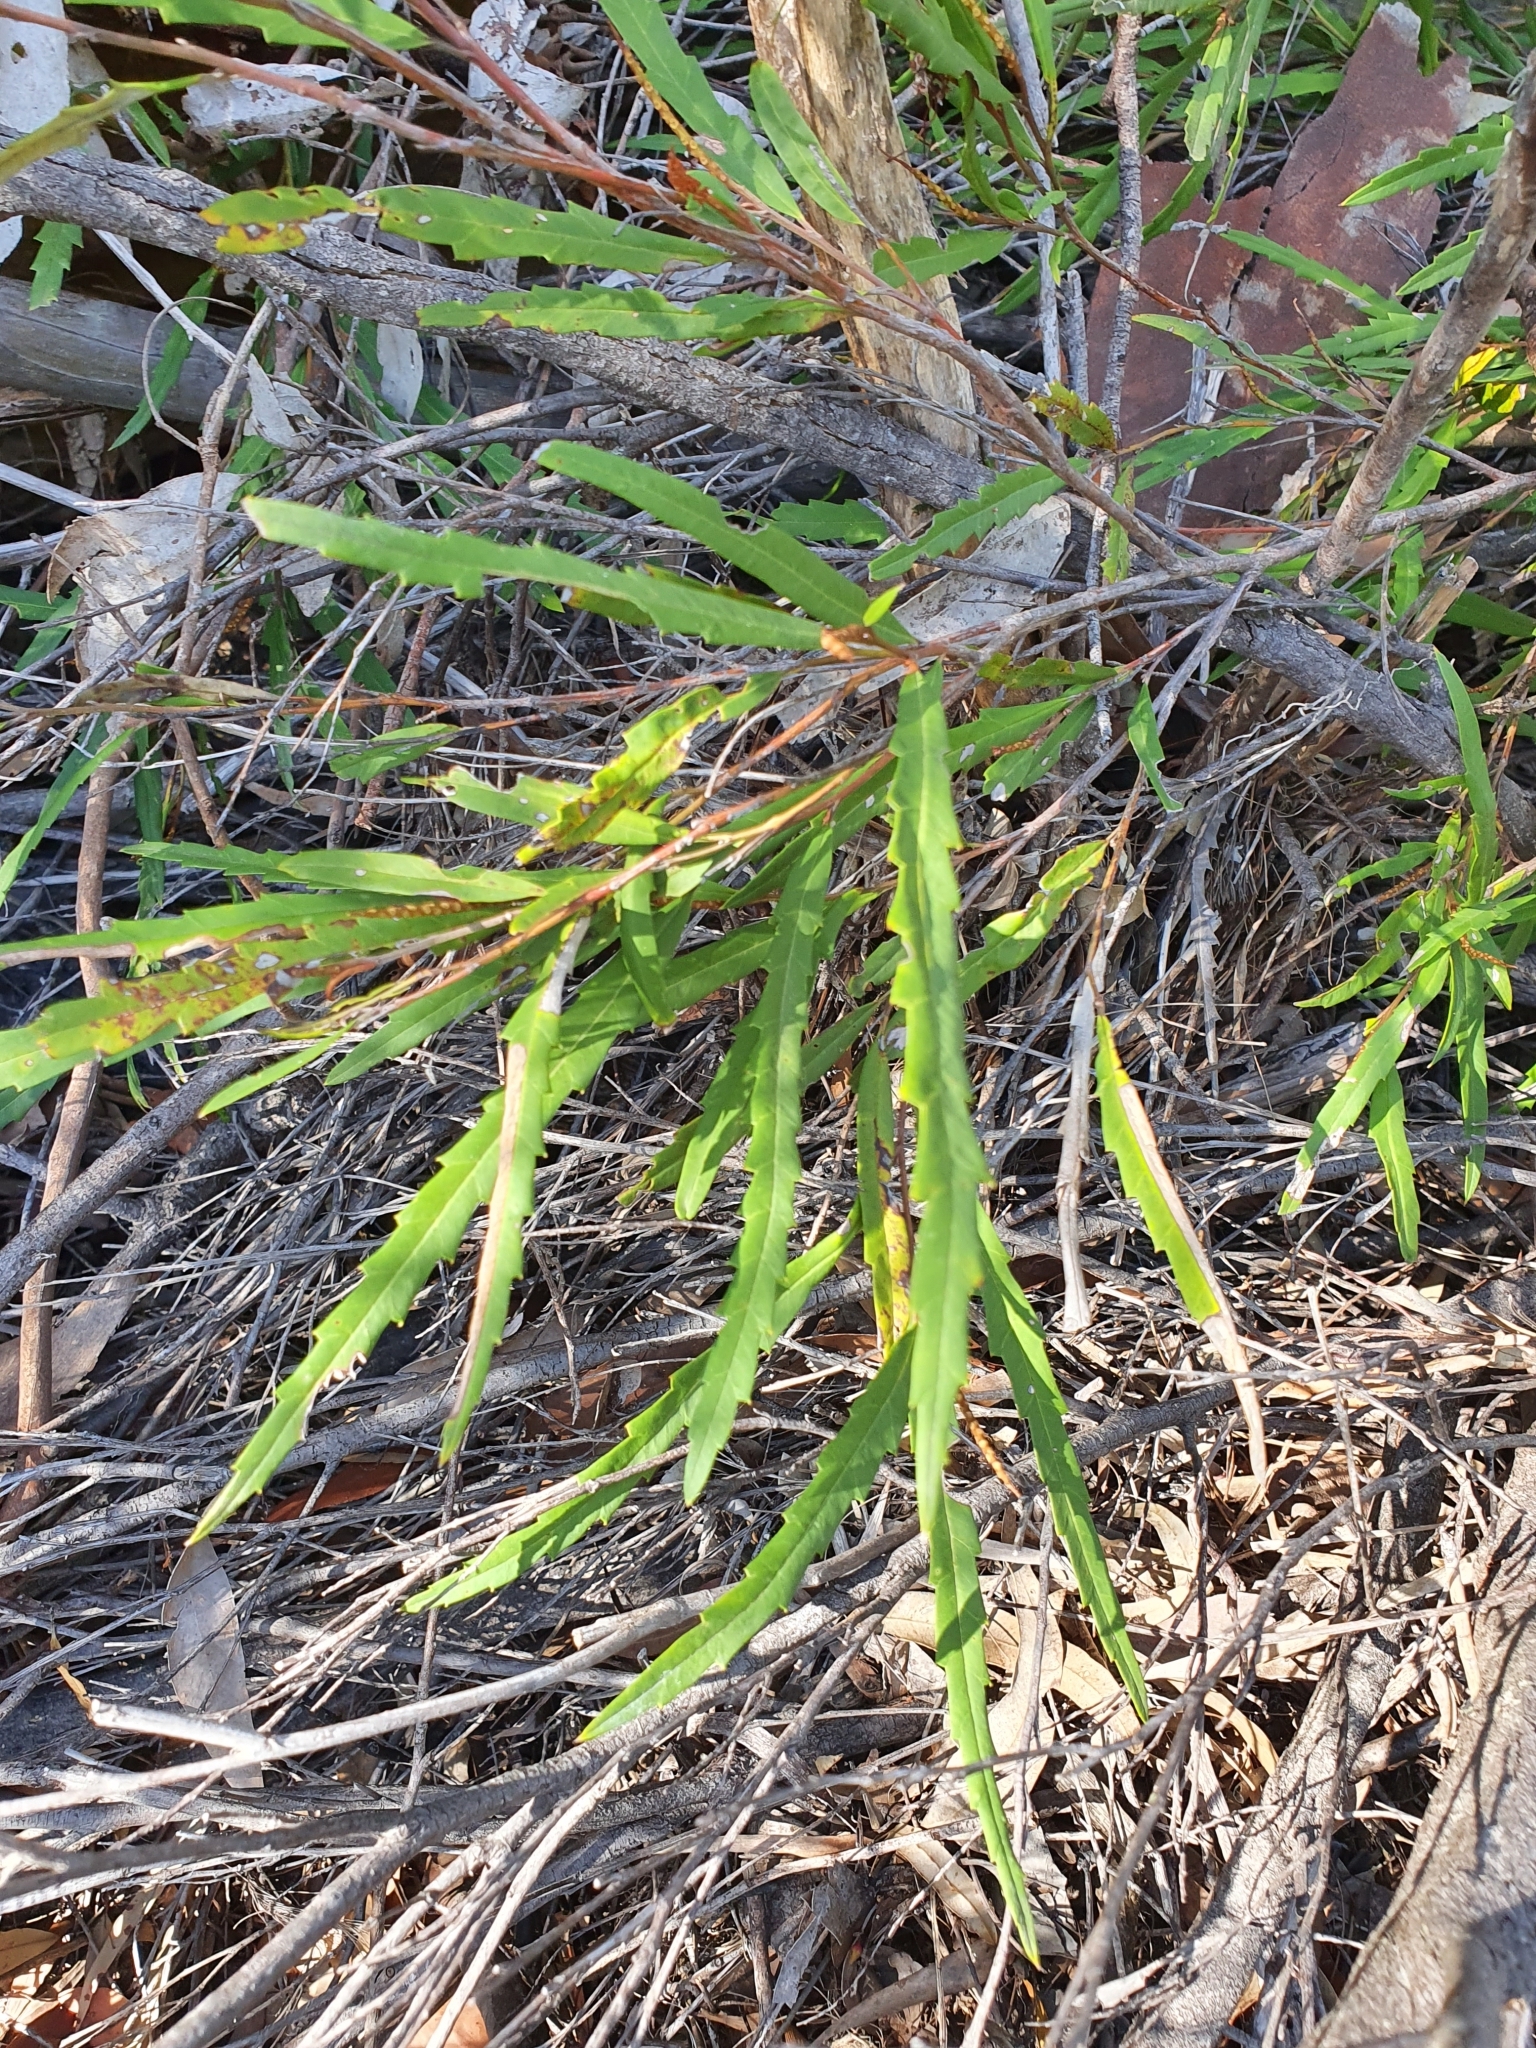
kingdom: Plantae
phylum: Tracheophyta
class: Magnoliopsida
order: Proteales
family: Proteaceae
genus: Grevillea
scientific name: Grevillea longifolia
